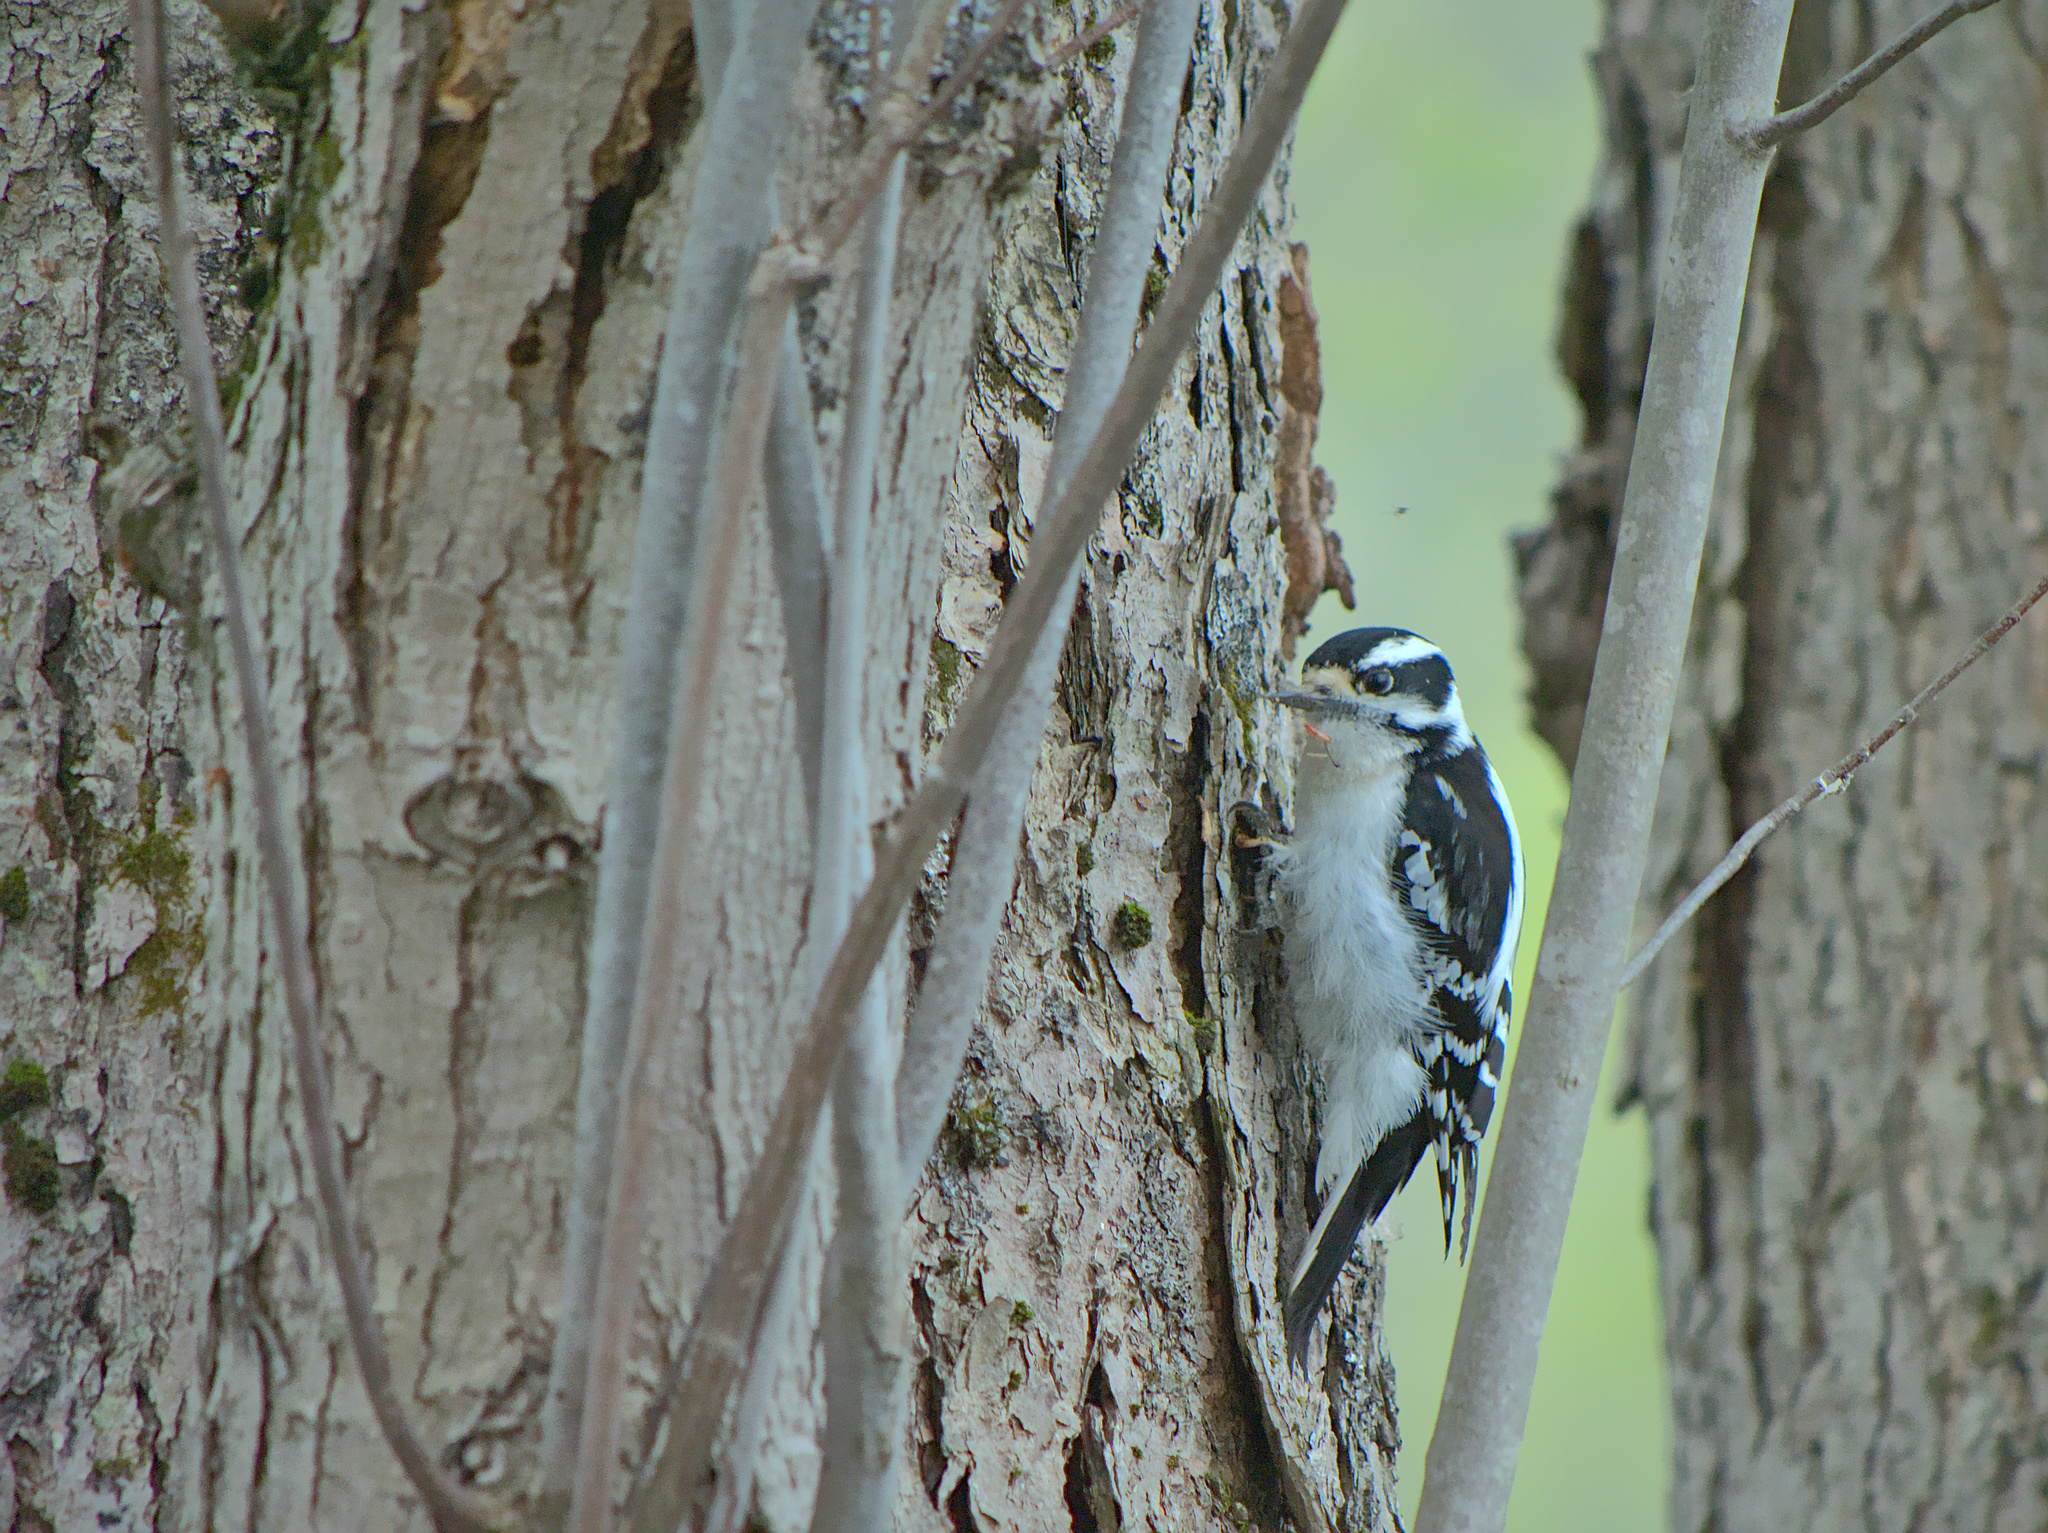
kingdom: Animalia
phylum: Chordata
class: Aves
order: Piciformes
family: Picidae
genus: Dryobates
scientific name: Dryobates pubescens
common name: Downy woodpecker
